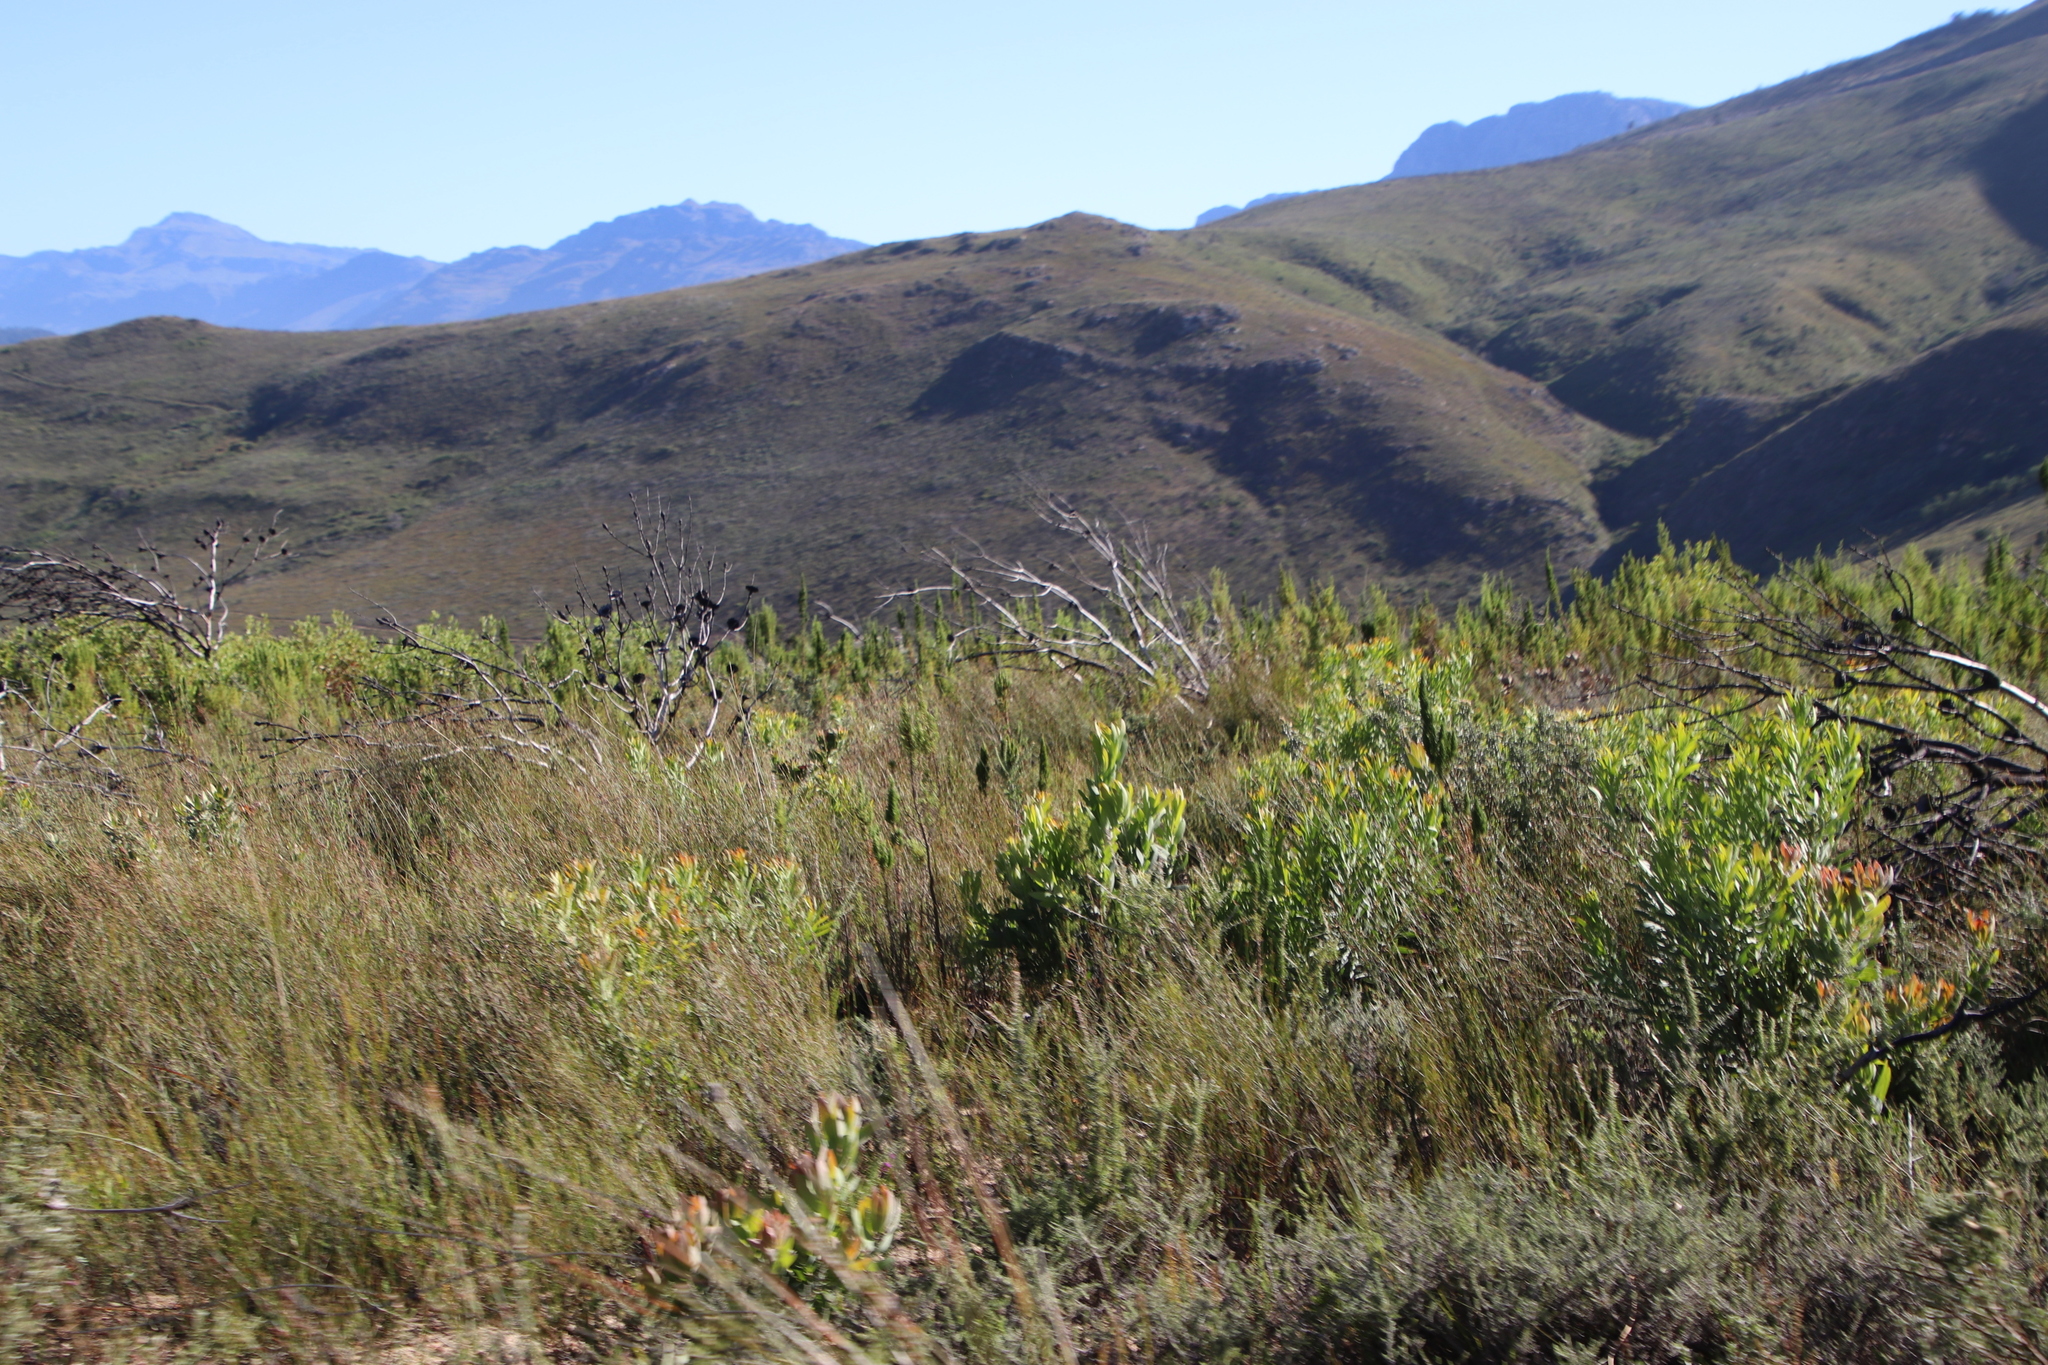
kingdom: Plantae
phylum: Tracheophyta
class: Magnoliopsida
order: Proteales
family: Proteaceae
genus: Leucadendron
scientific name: Leucadendron daphnoides
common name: Du toit's kloof conebush
